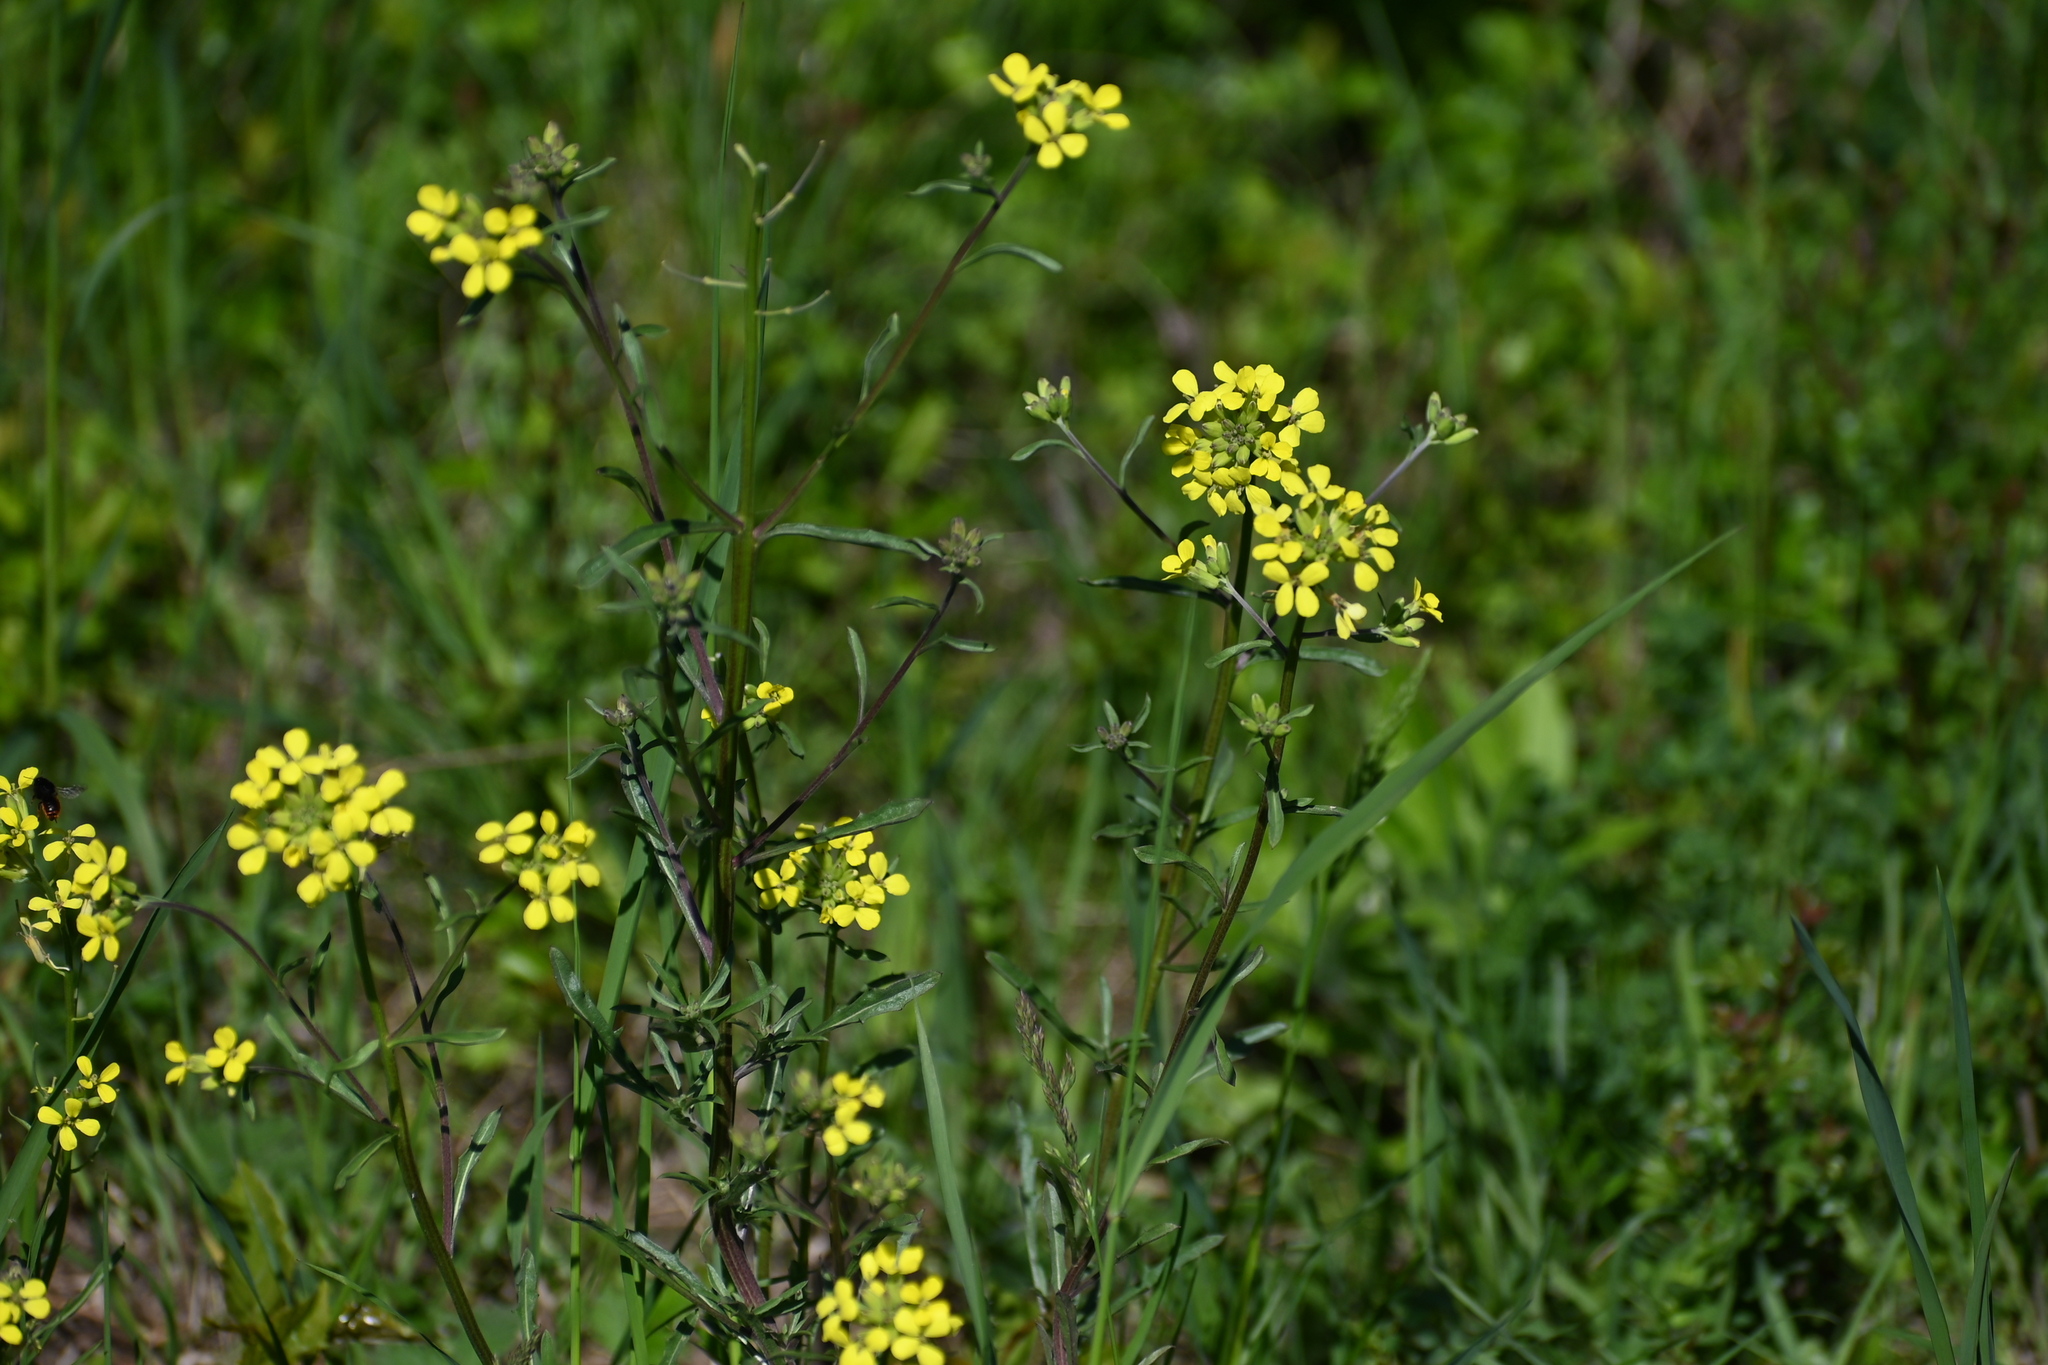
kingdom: Plantae
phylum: Tracheophyta
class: Magnoliopsida
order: Brassicales
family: Brassicaceae
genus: Erysimum
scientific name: Erysimum crepidifolium
